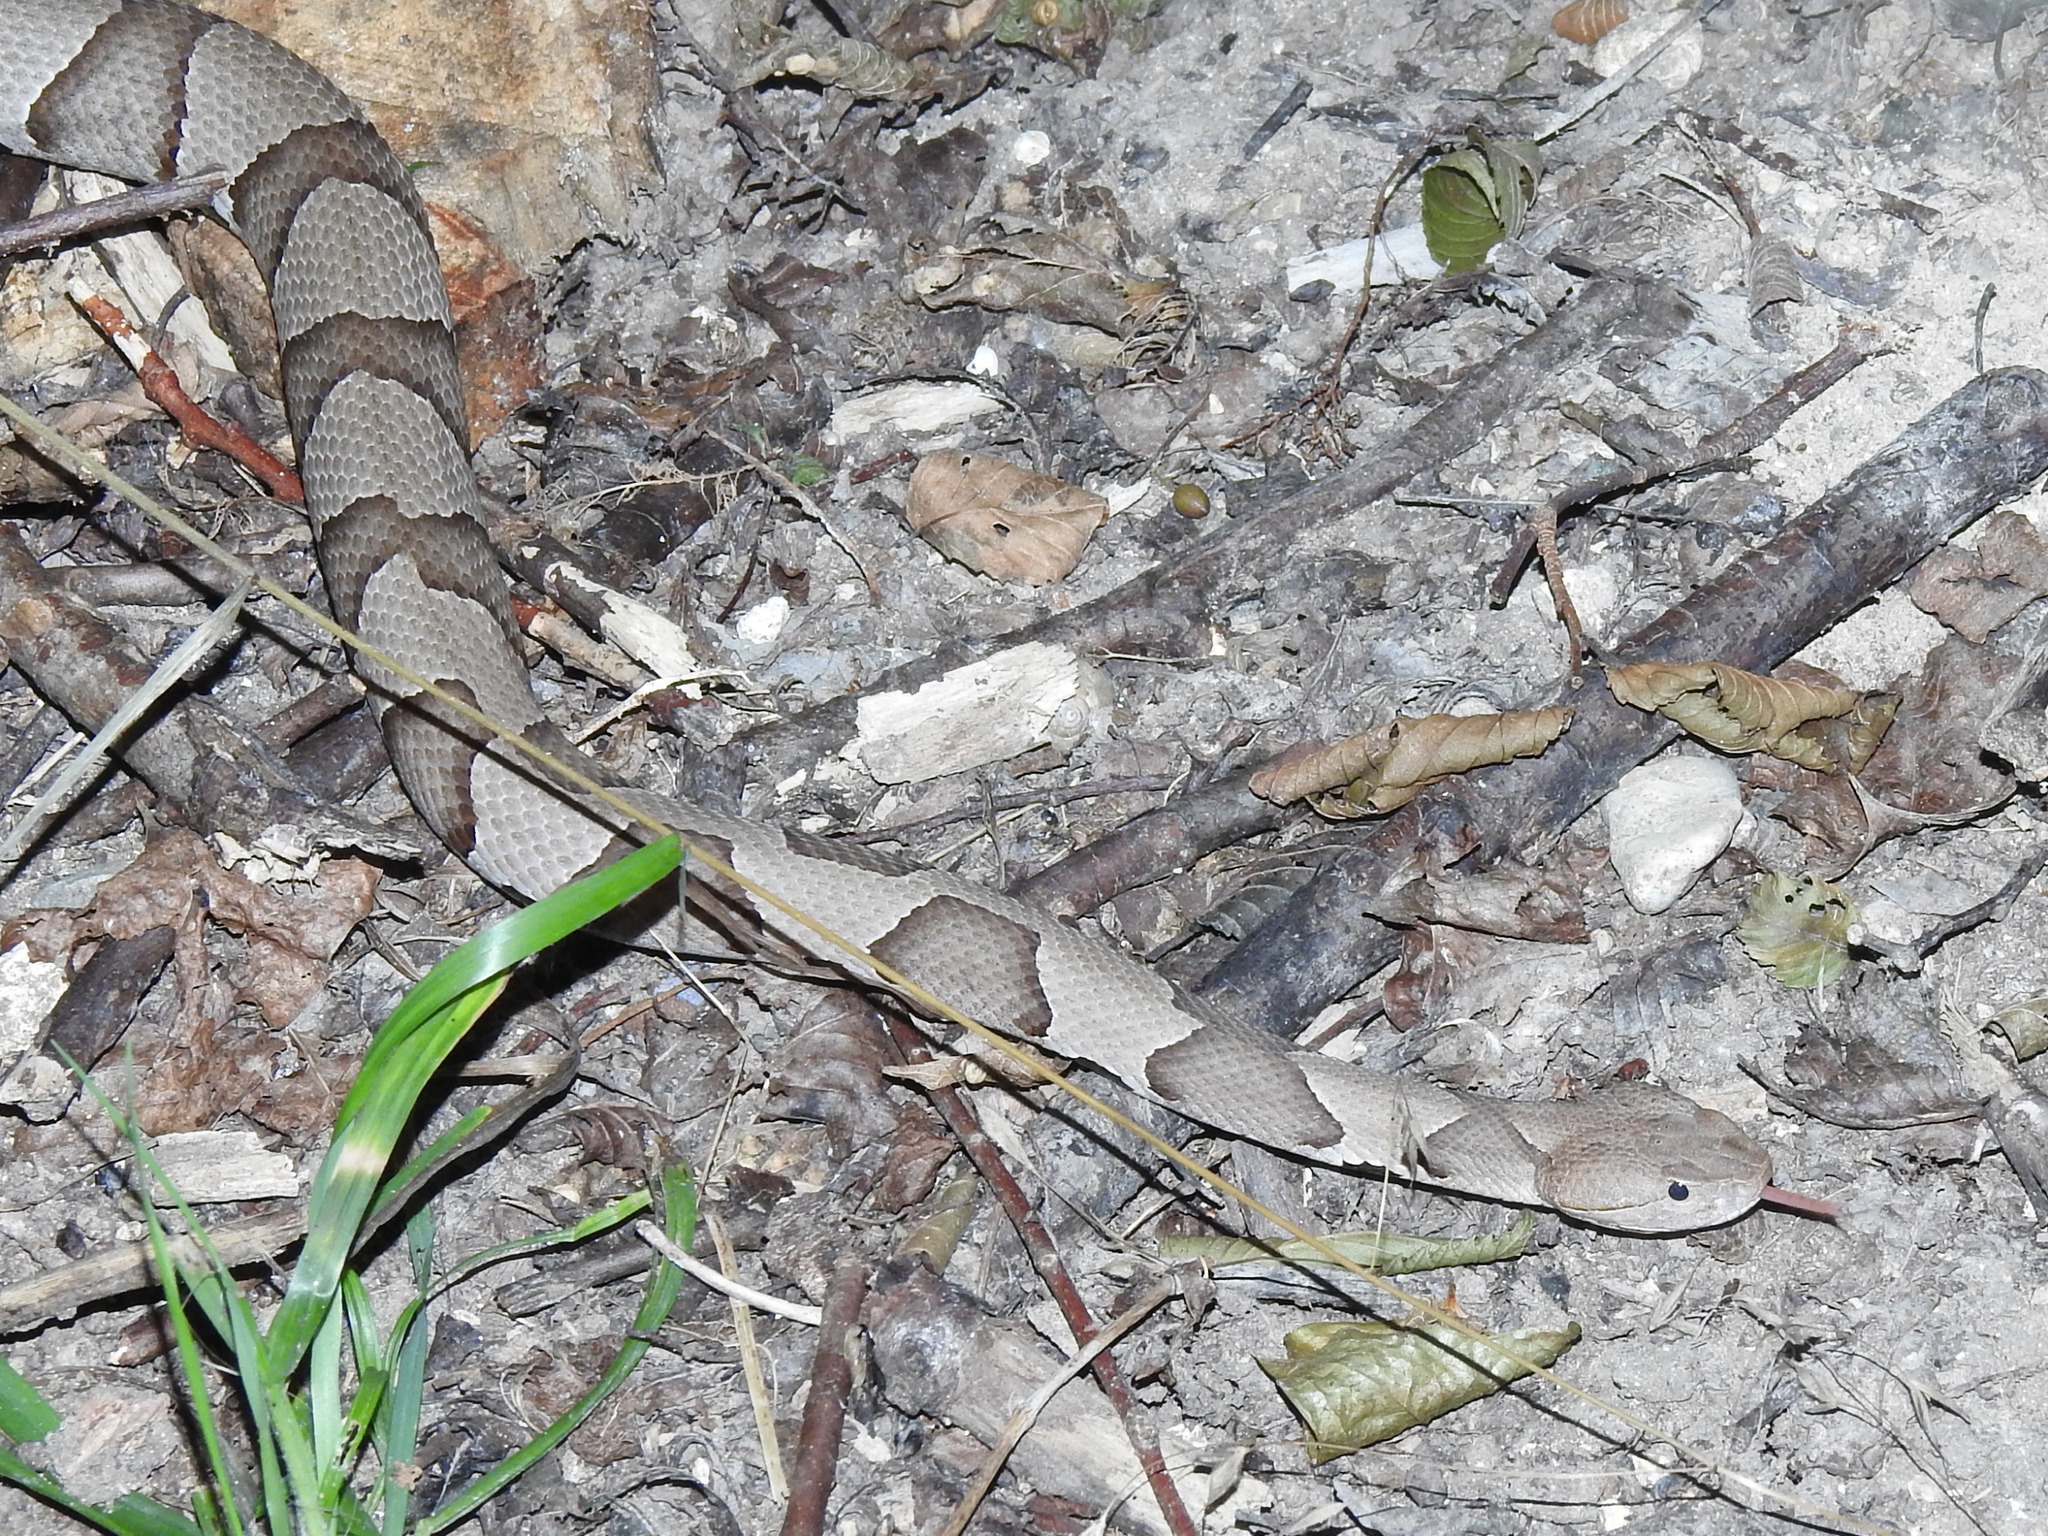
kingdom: Animalia
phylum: Chordata
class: Squamata
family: Viperidae
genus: Agkistrodon
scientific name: Agkistrodon laticinctus
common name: Broad-banded copperhead
